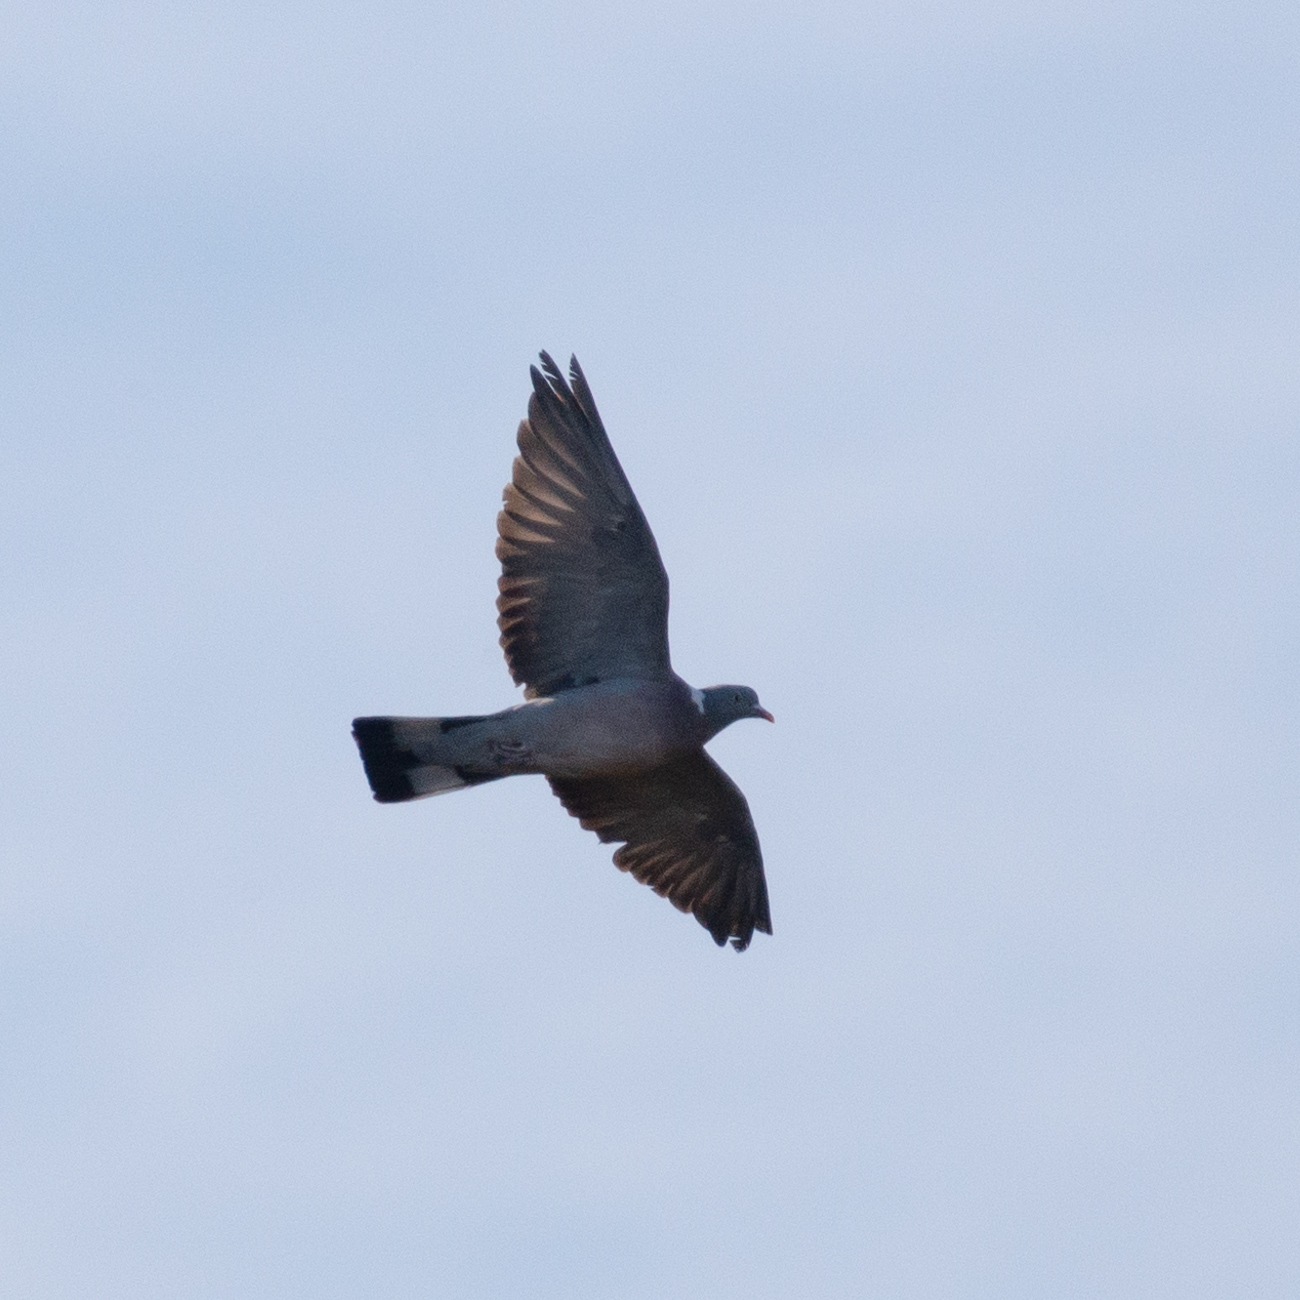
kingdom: Animalia
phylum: Chordata
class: Aves
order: Columbiformes
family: Columbidae
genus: Columba
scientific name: Columba palumbus
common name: Common wood pigeon
